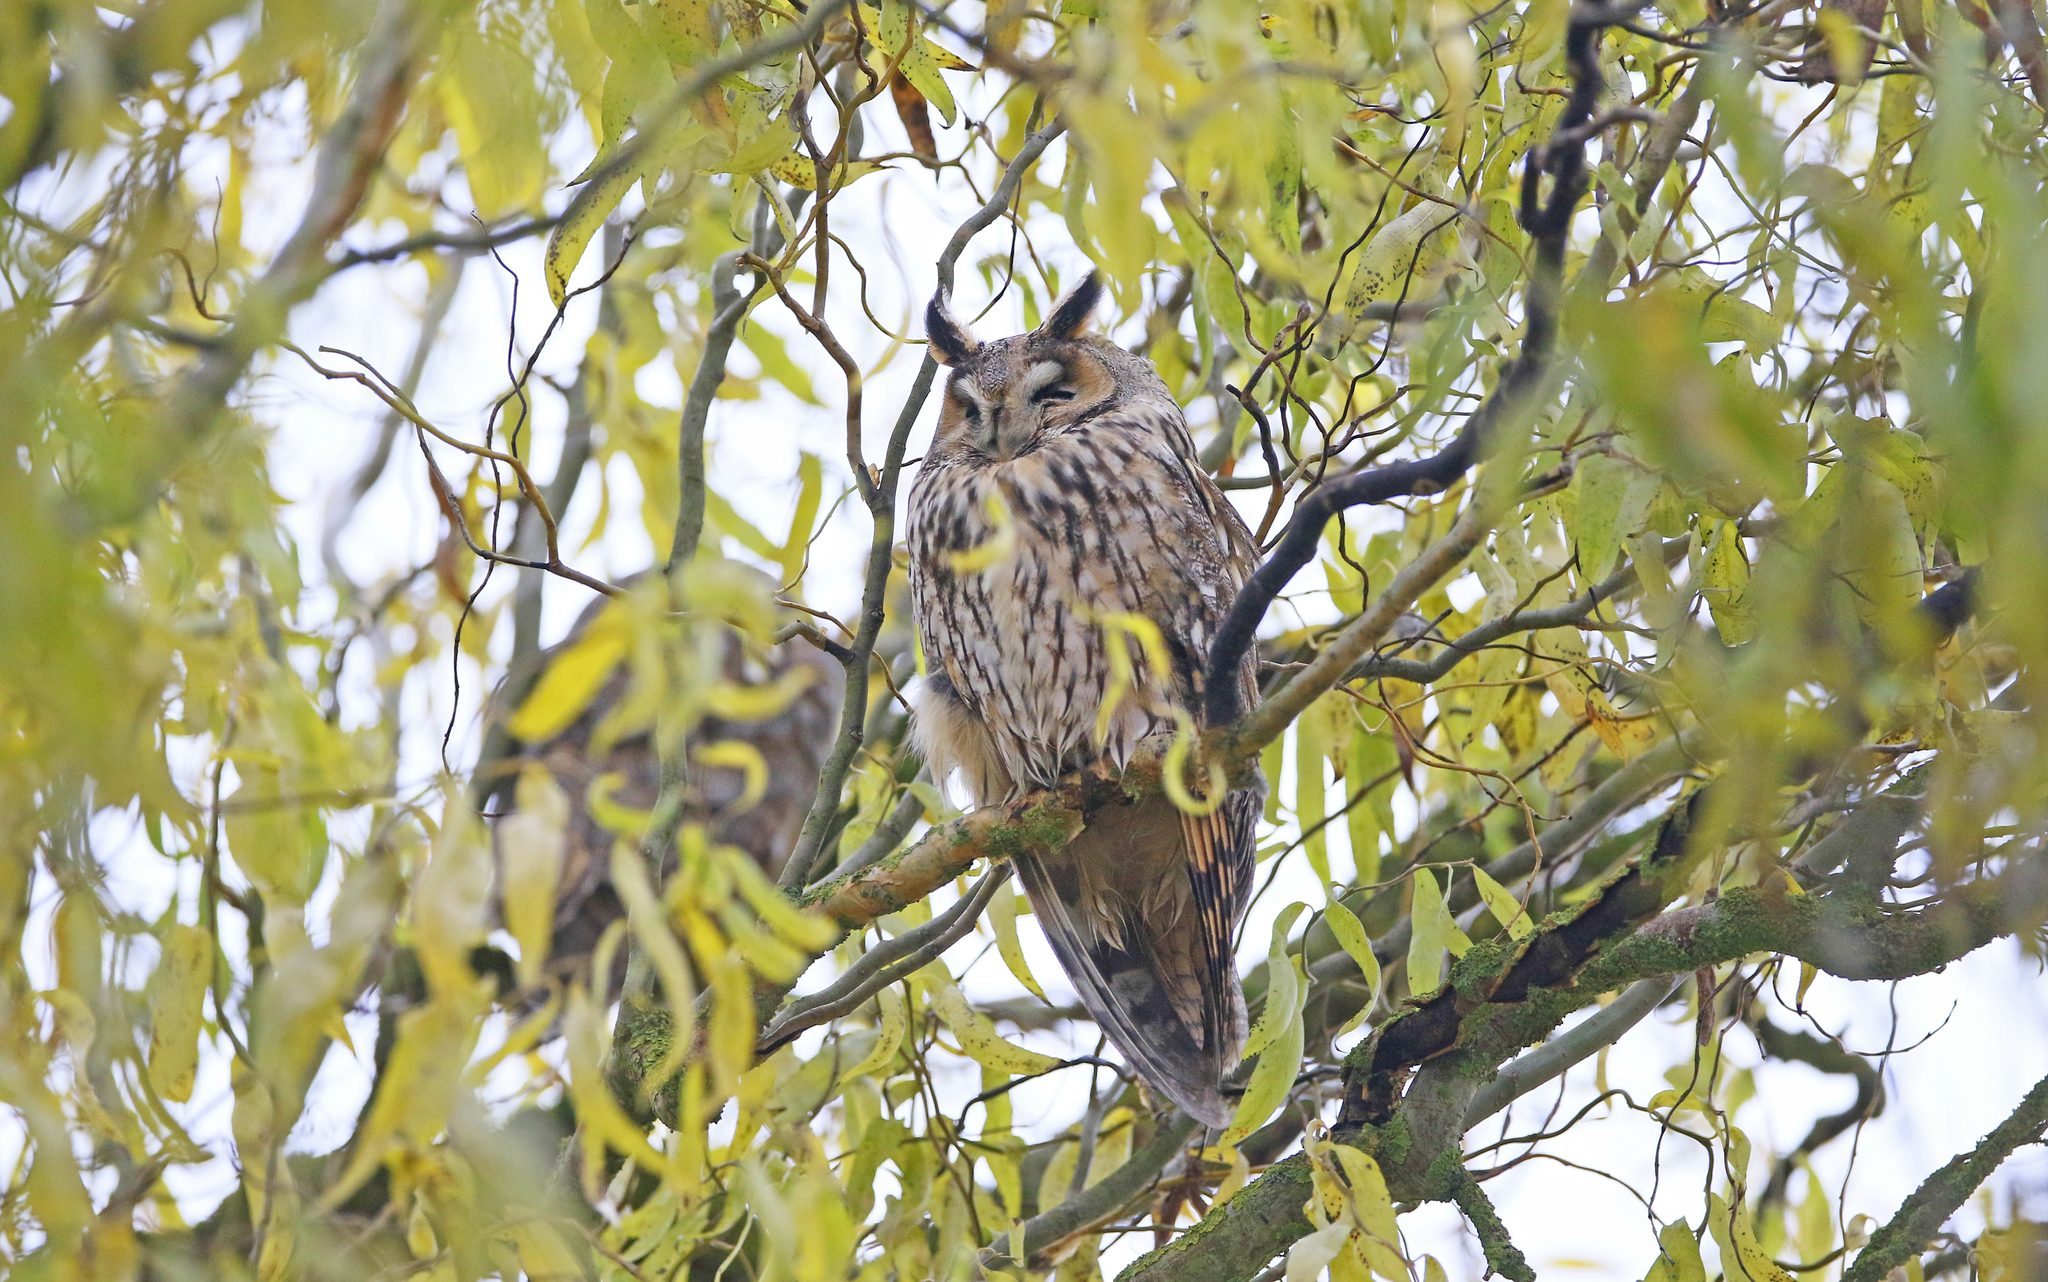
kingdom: Animalia
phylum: Chordata
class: Aves
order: Strigiformes
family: Strigidae
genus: Asio
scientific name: Asio otus
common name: Long-eared owl
